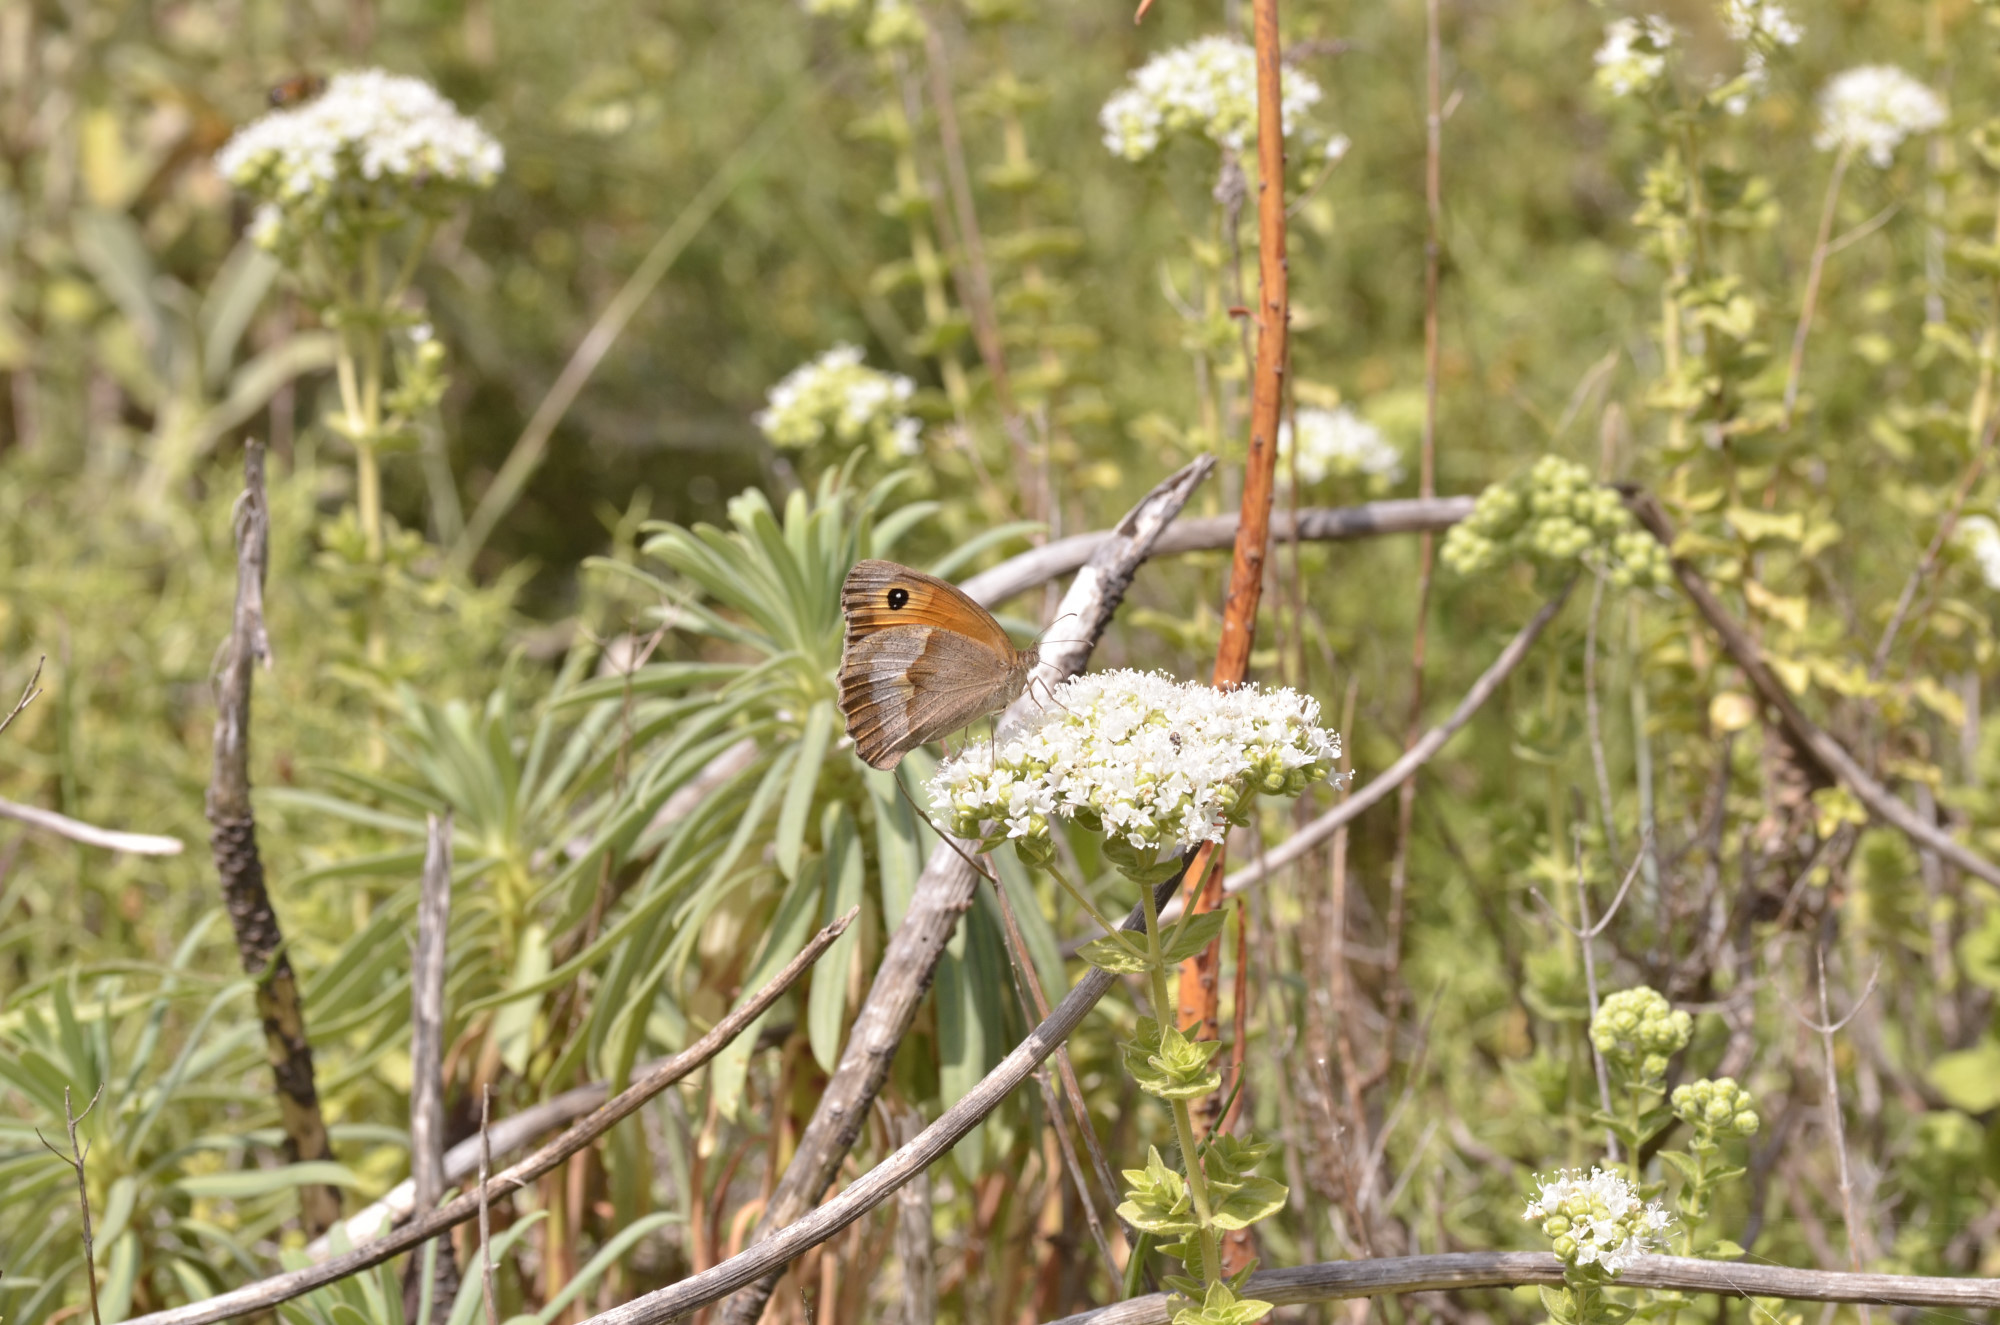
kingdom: Animalia
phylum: Arthropoda
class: Insecta
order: Lepidoptera
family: Nymphalidae
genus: Maniola
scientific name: Maniola jurtina
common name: Meadow brown
